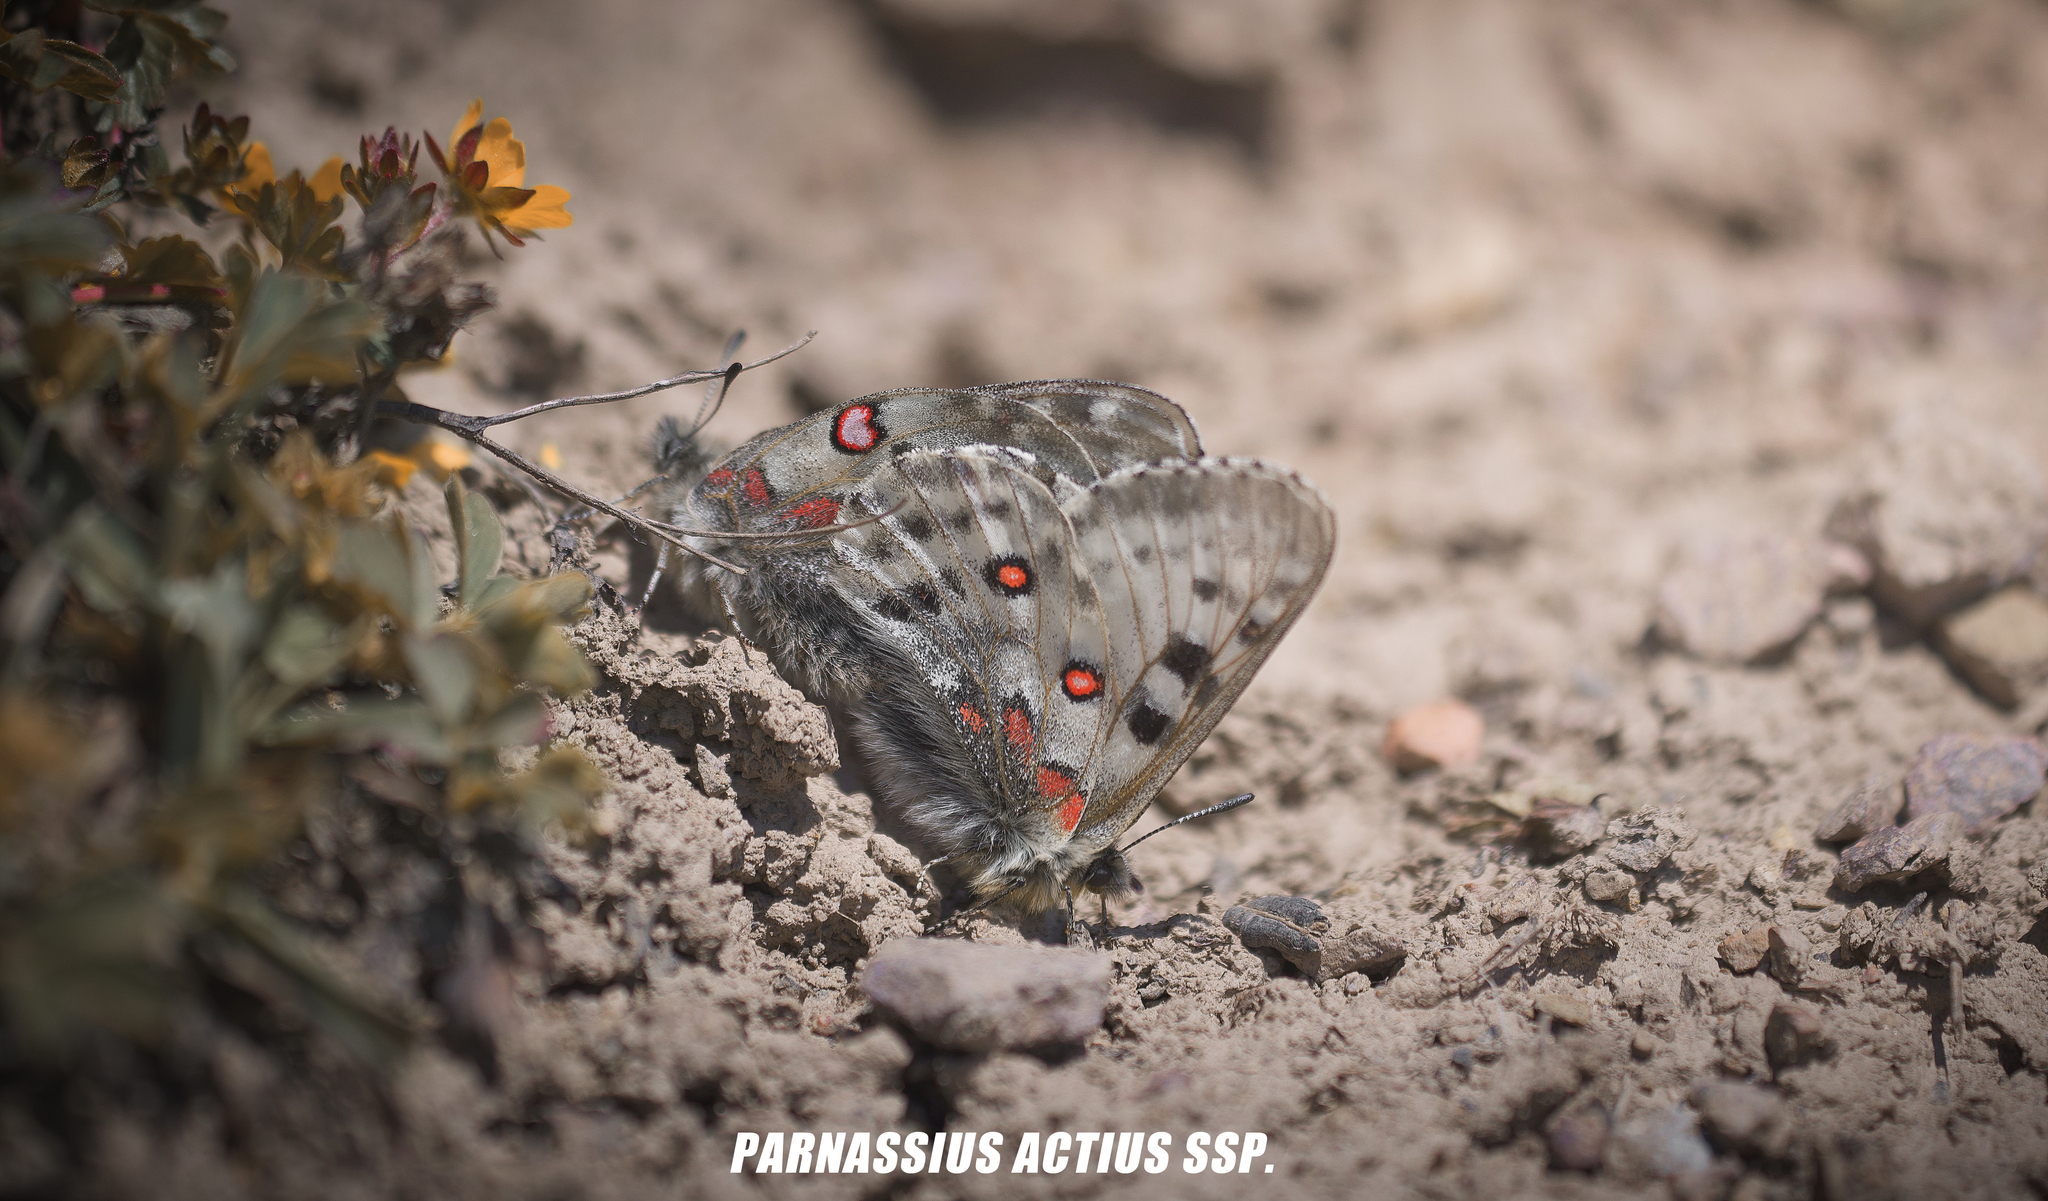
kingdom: Animalia
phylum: Arthropoda
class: Insecta
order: Lepidoptera
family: Papilionidae
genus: Parnassius
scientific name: Parnassius actius
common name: Scarce red apollo
